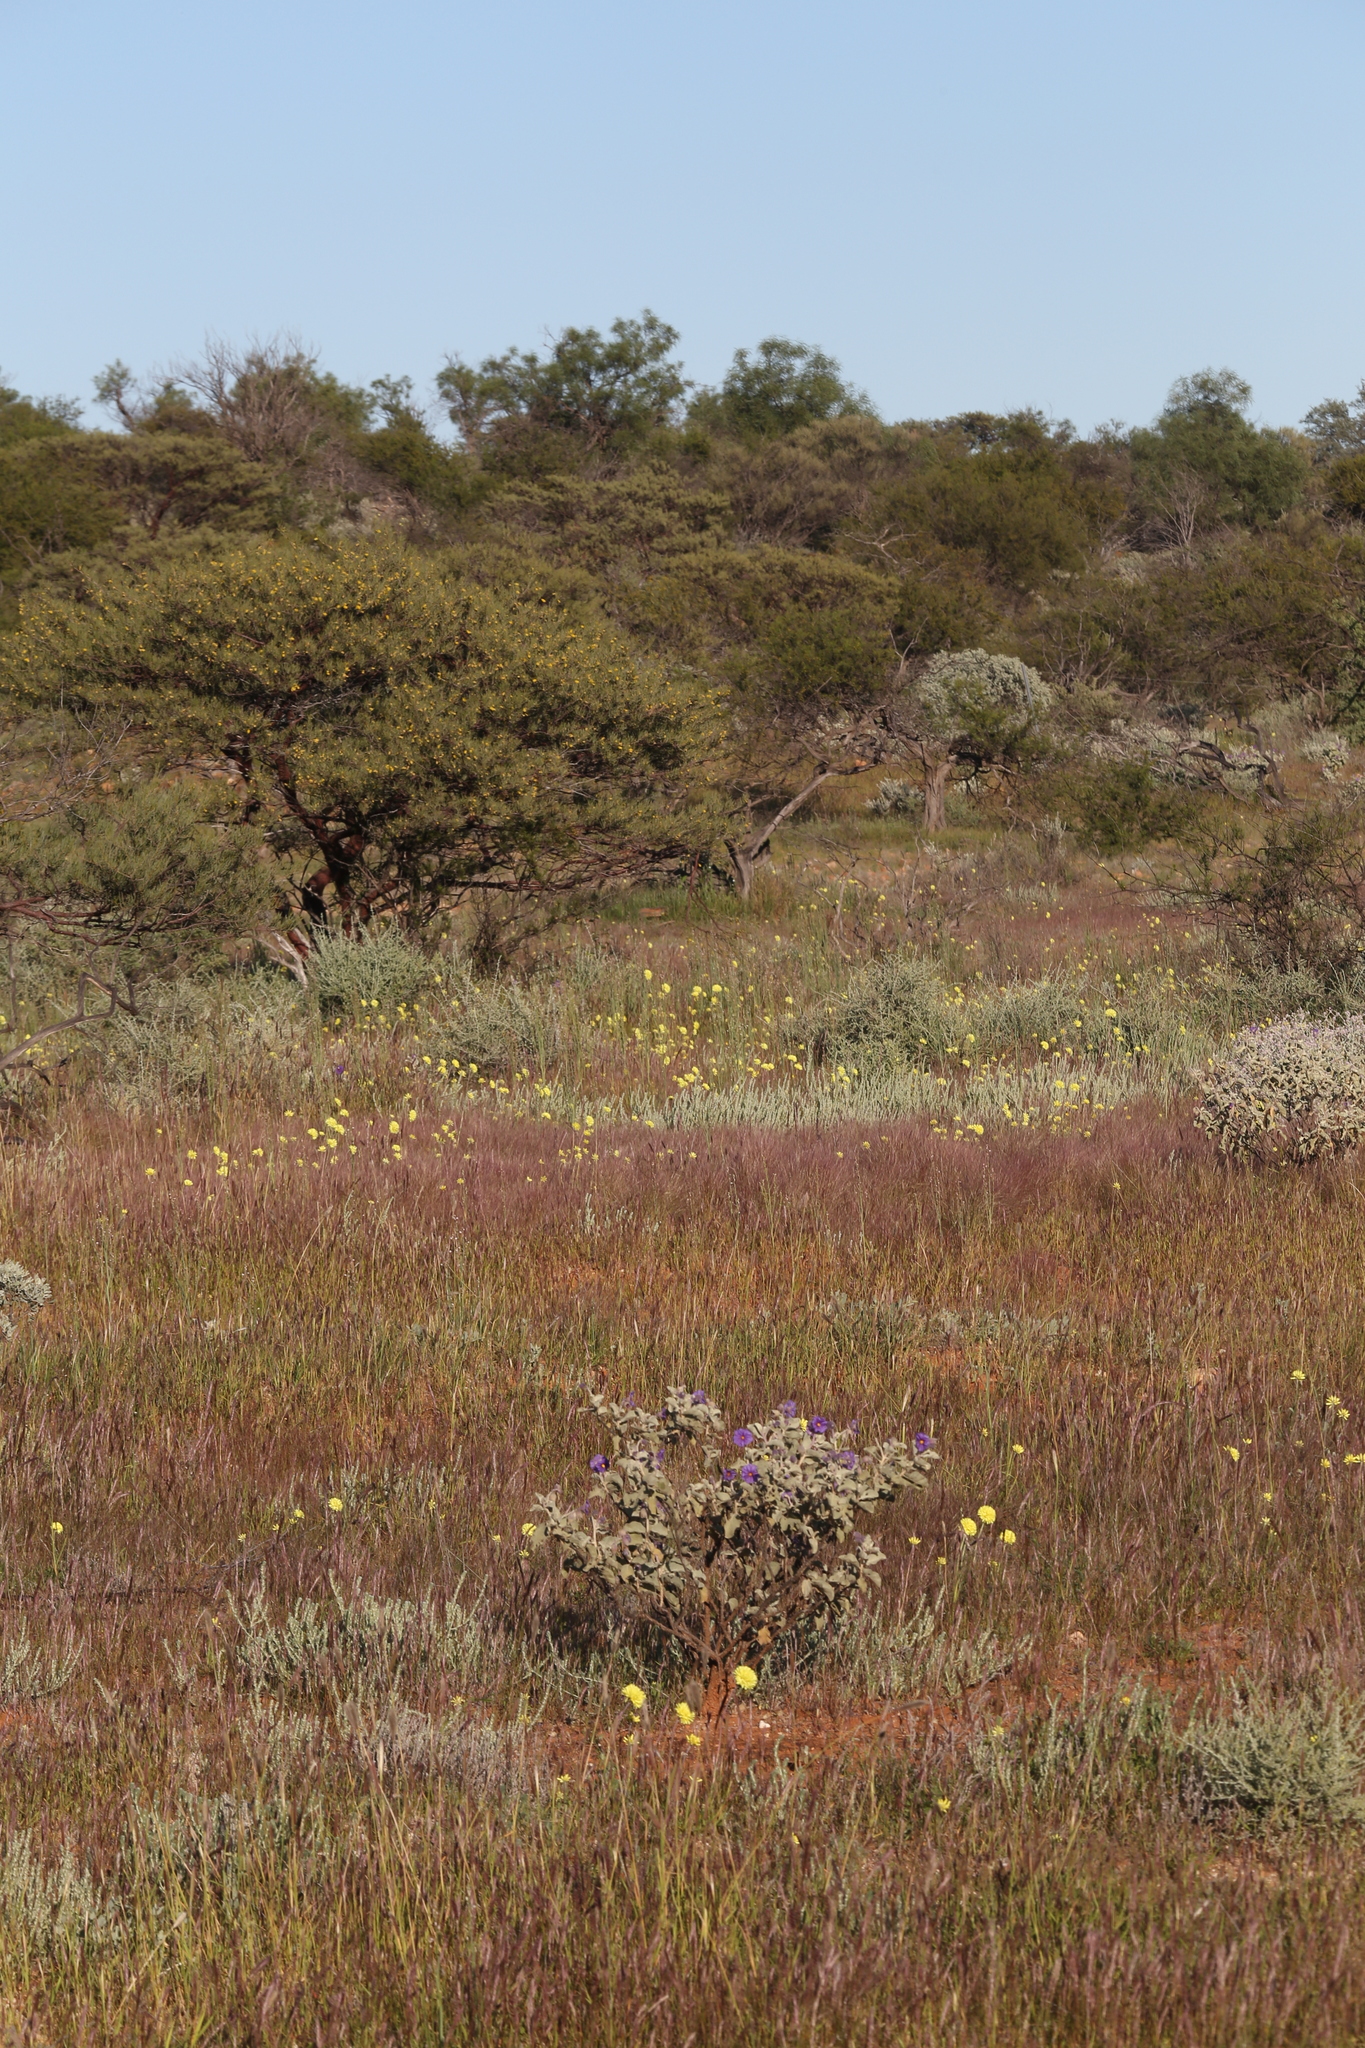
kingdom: Plantae
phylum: Tracheophyta
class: Magnoliopsida
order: Asterales
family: Asteraceae
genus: Cephalipterum
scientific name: Cephalipterum drummondii
